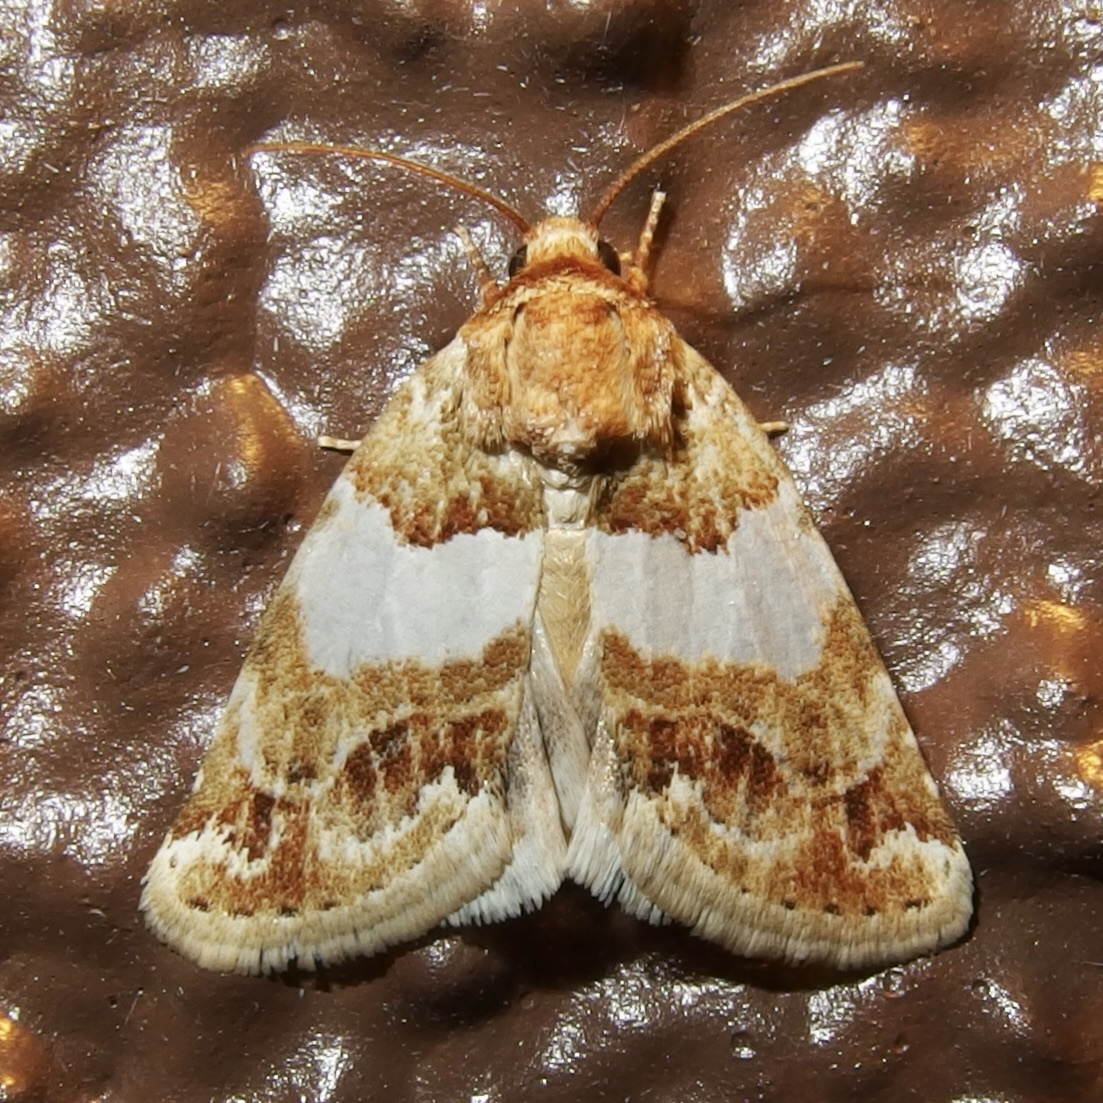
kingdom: Animalia
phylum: Arthropoda
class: Insecta
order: Lepidoptera
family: Noctuidae
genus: Schinia
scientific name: Schinia argentifascia
